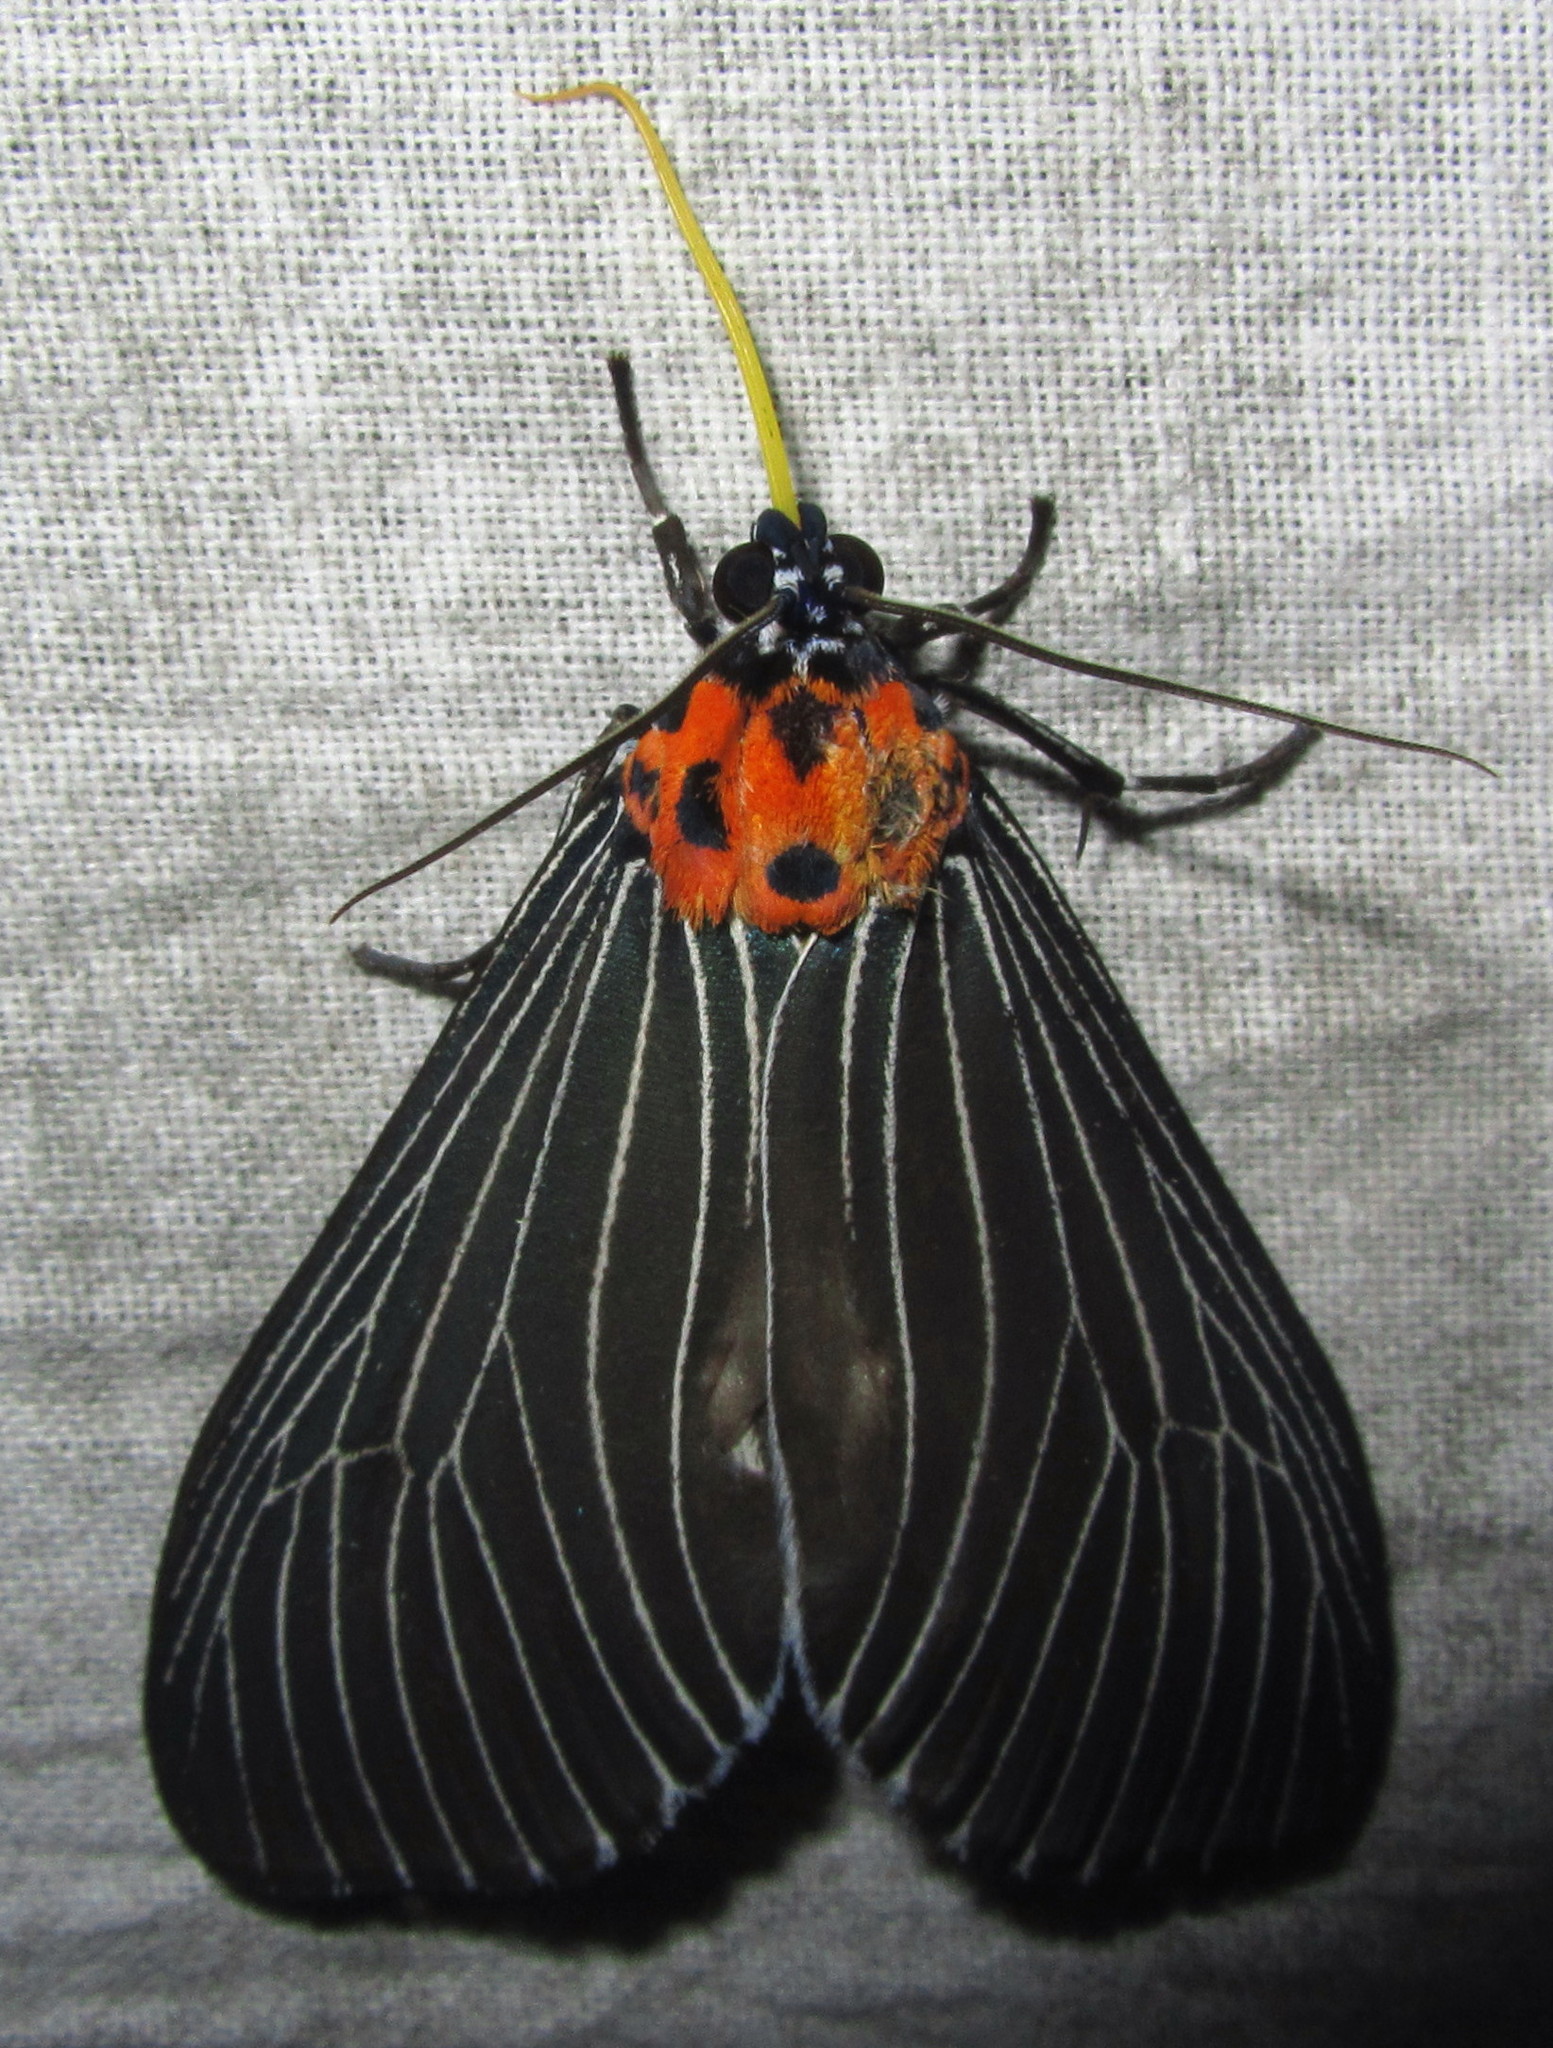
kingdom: Animalia
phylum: Arthropoda
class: Insecta
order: Lepidoptera
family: Erebidae
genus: Neochera
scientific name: Neochera marmorea
